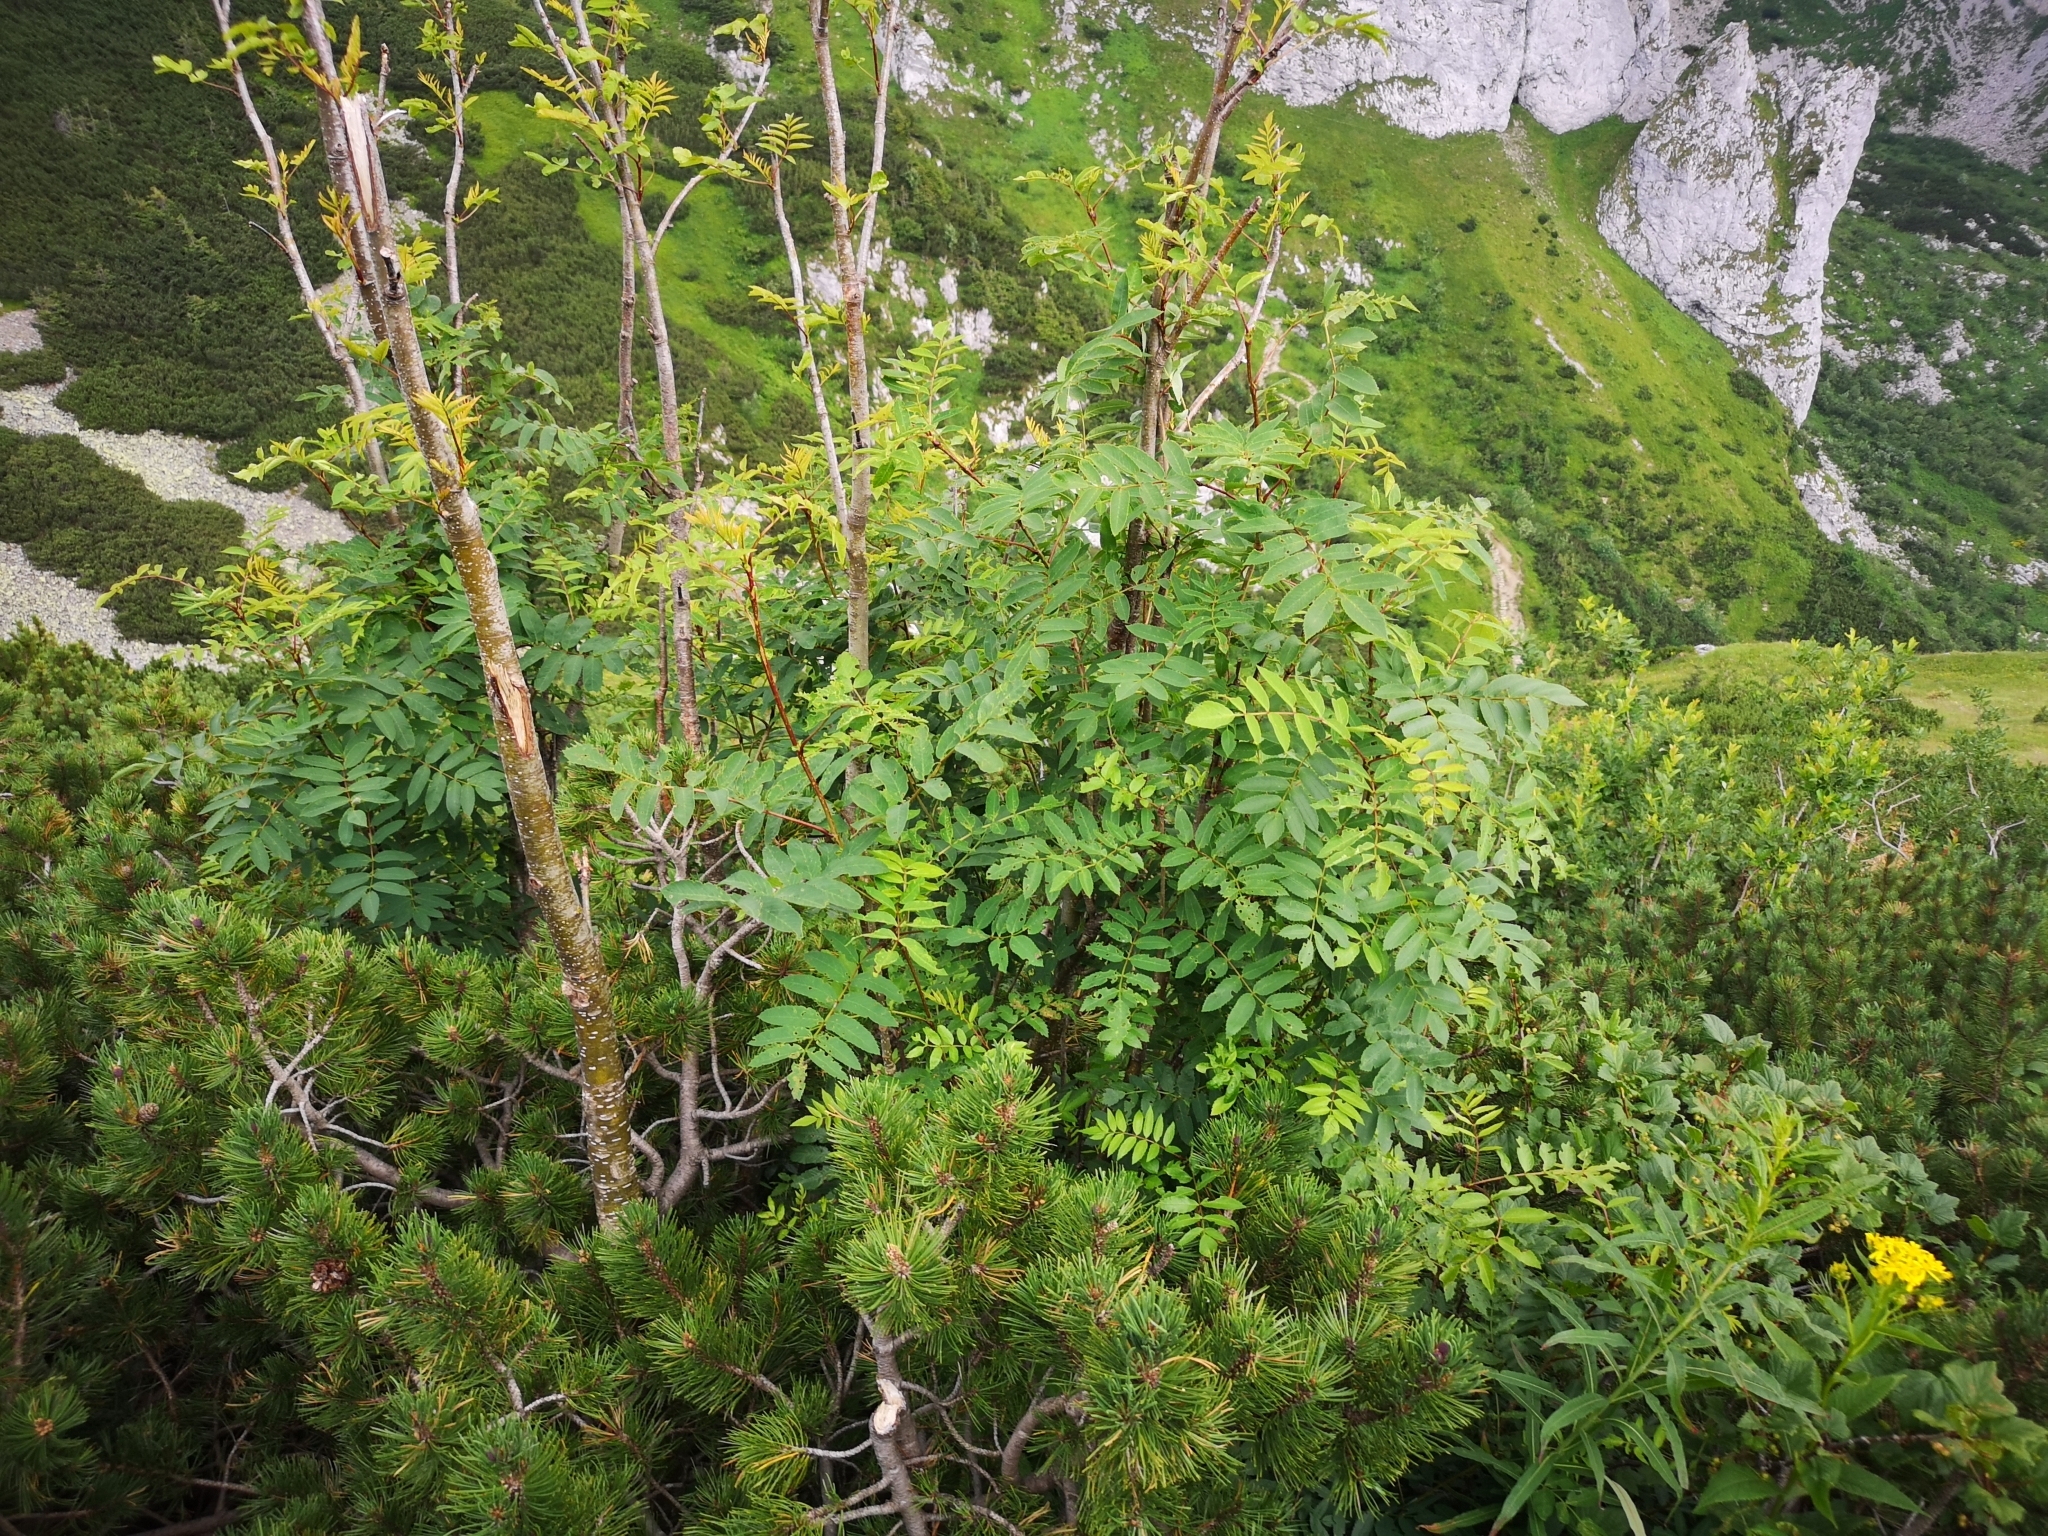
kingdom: Plantae
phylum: Tracheophyta
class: Magnoliopsida
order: Rosales
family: Rosaceae
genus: Sorbus
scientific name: Sorbus aucuparia
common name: Rowan
